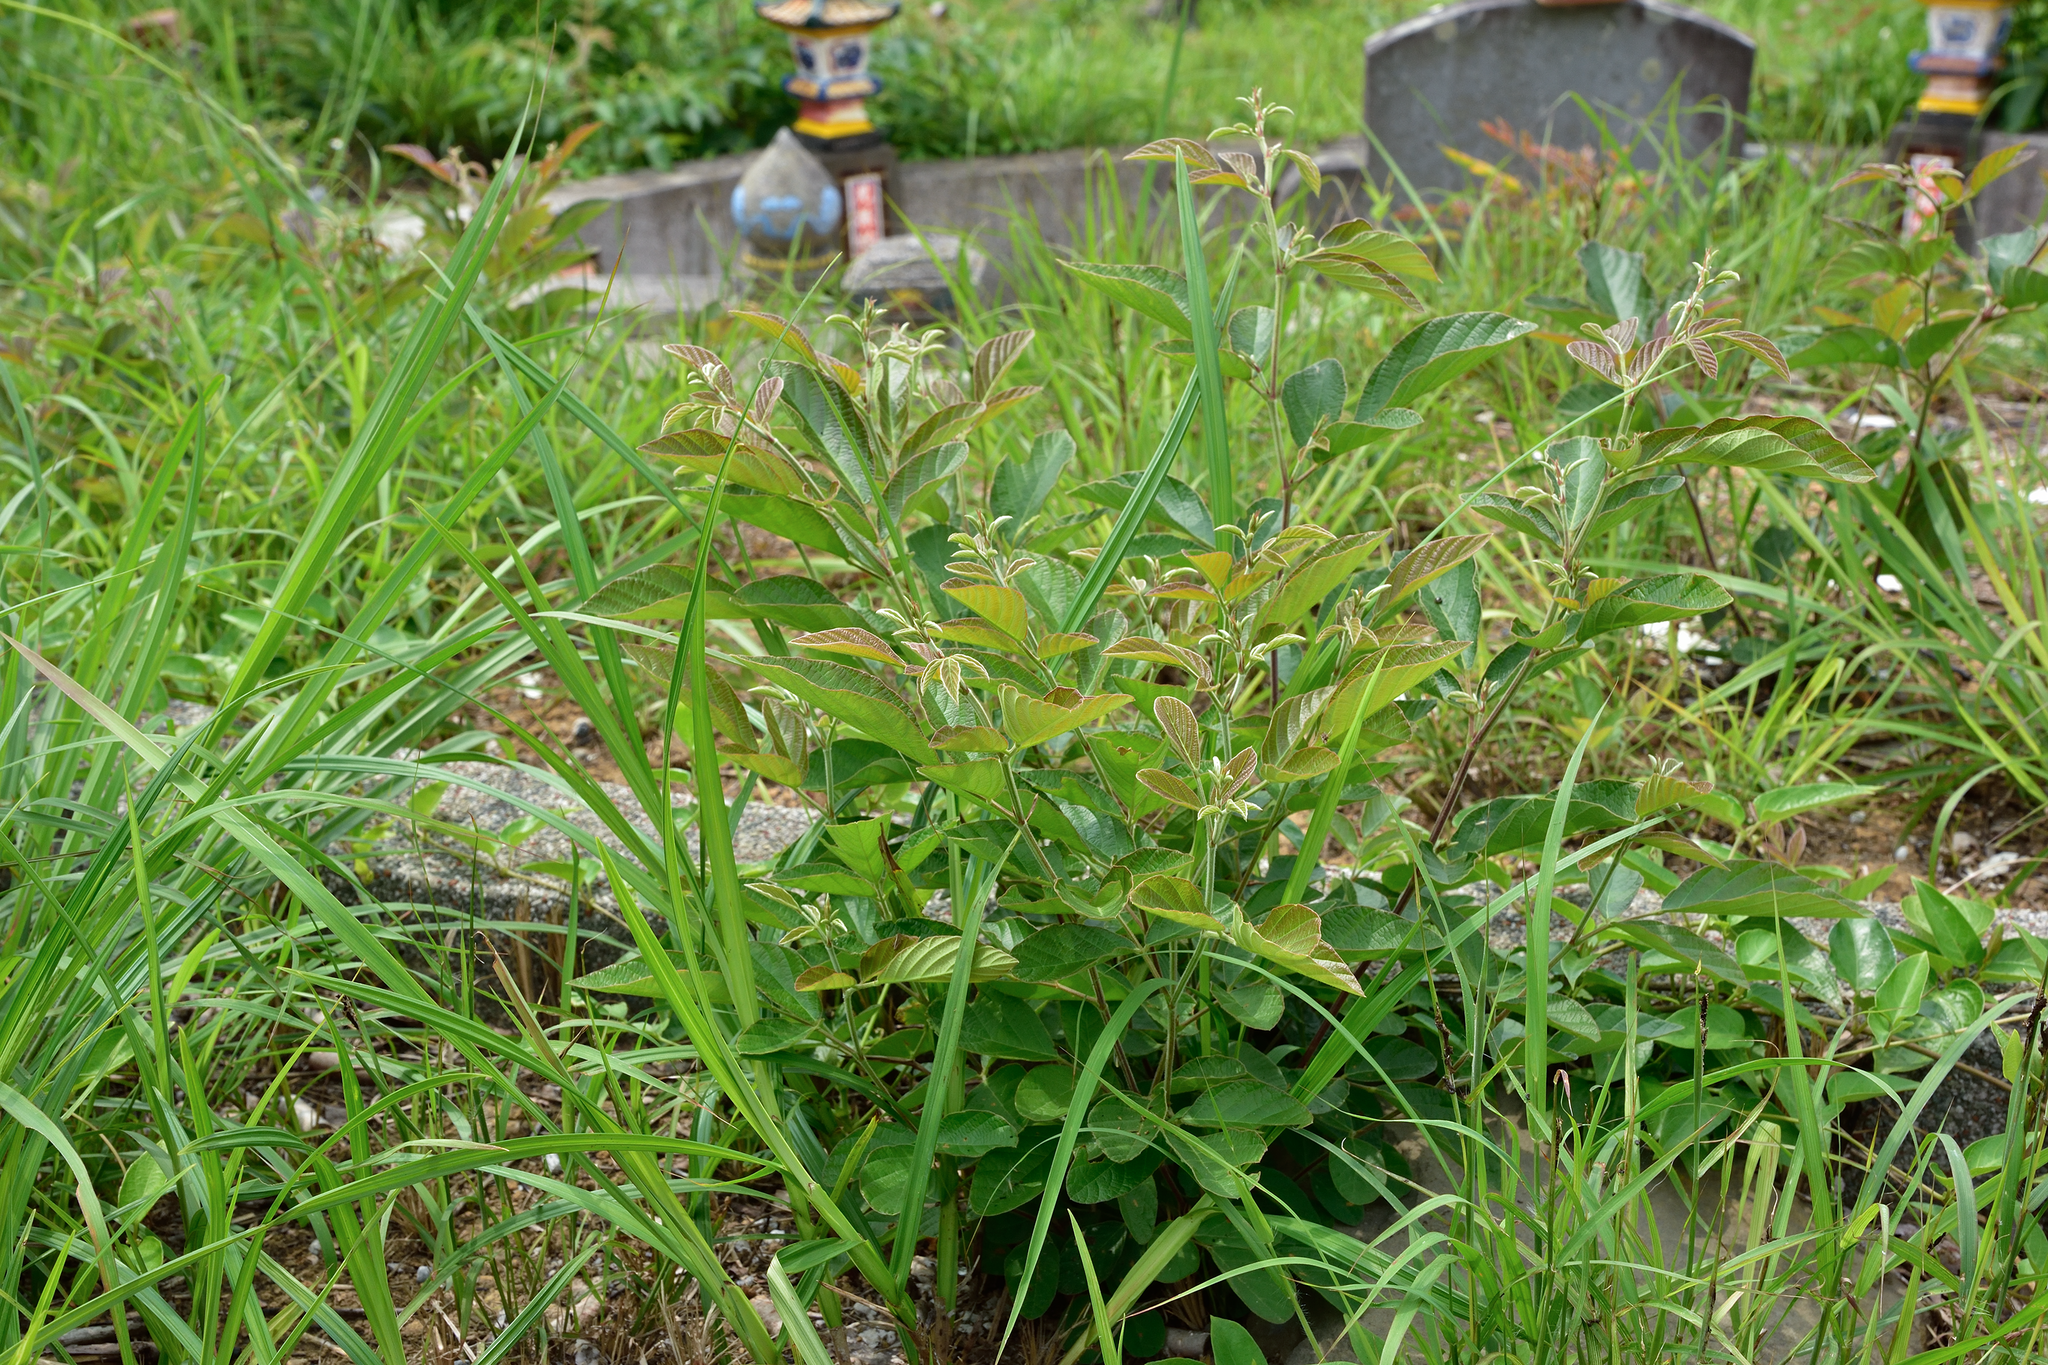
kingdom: Plantae
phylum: Tracheophyta
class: Magnoliopsida
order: Fabales
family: Fabaceae
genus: Phyllodium
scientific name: Phyllodium pulchellum
